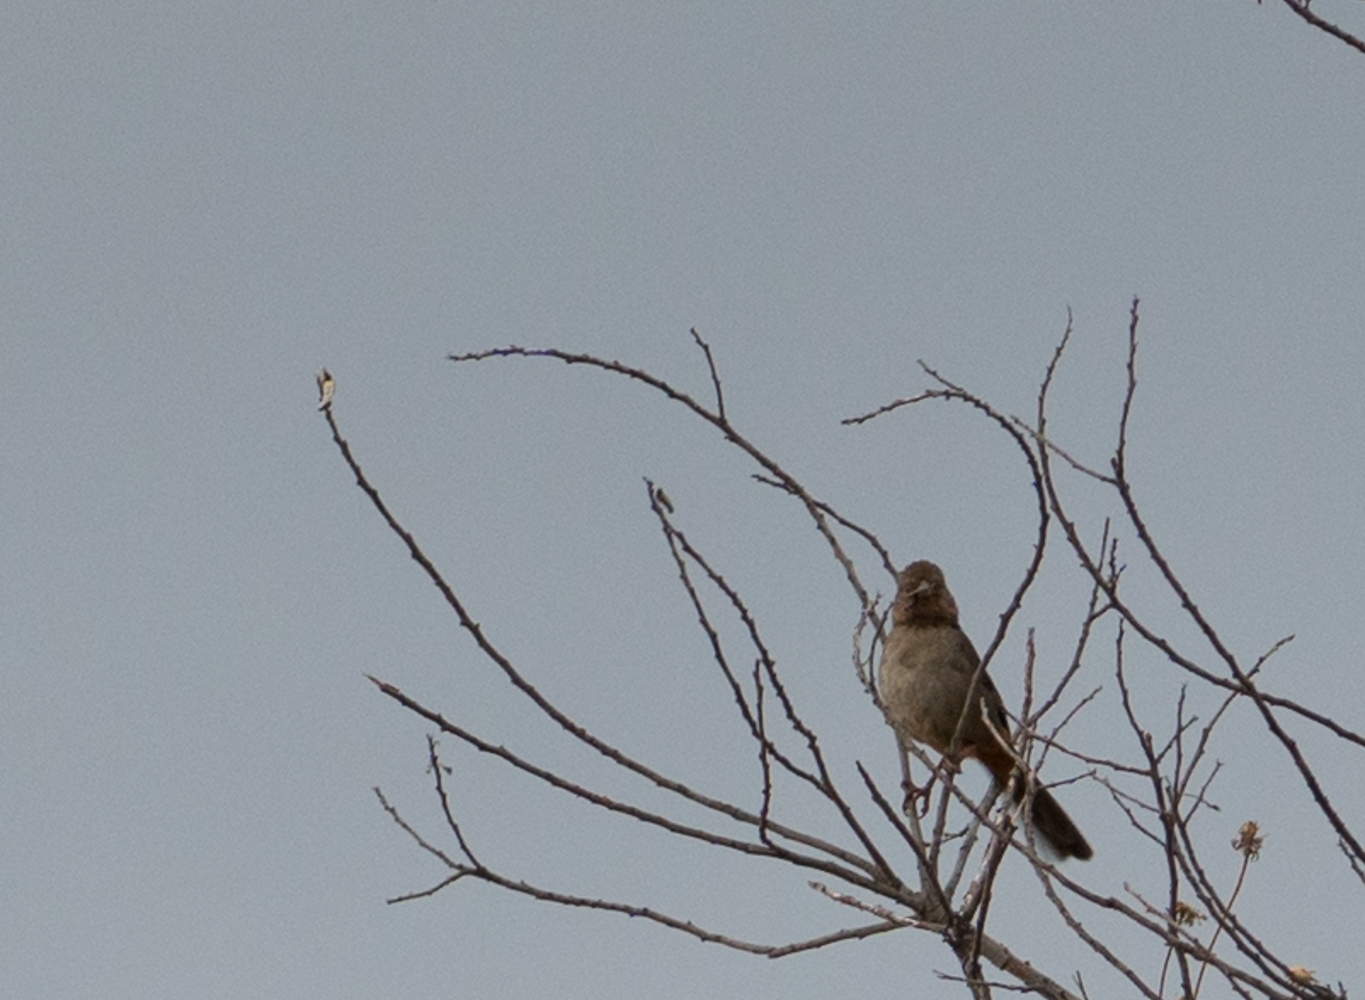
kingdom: Animalia
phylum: Chordata
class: Aves
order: Passeriformes
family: Passerellidae
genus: Melozone
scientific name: Melozone crissalis
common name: California towhee
